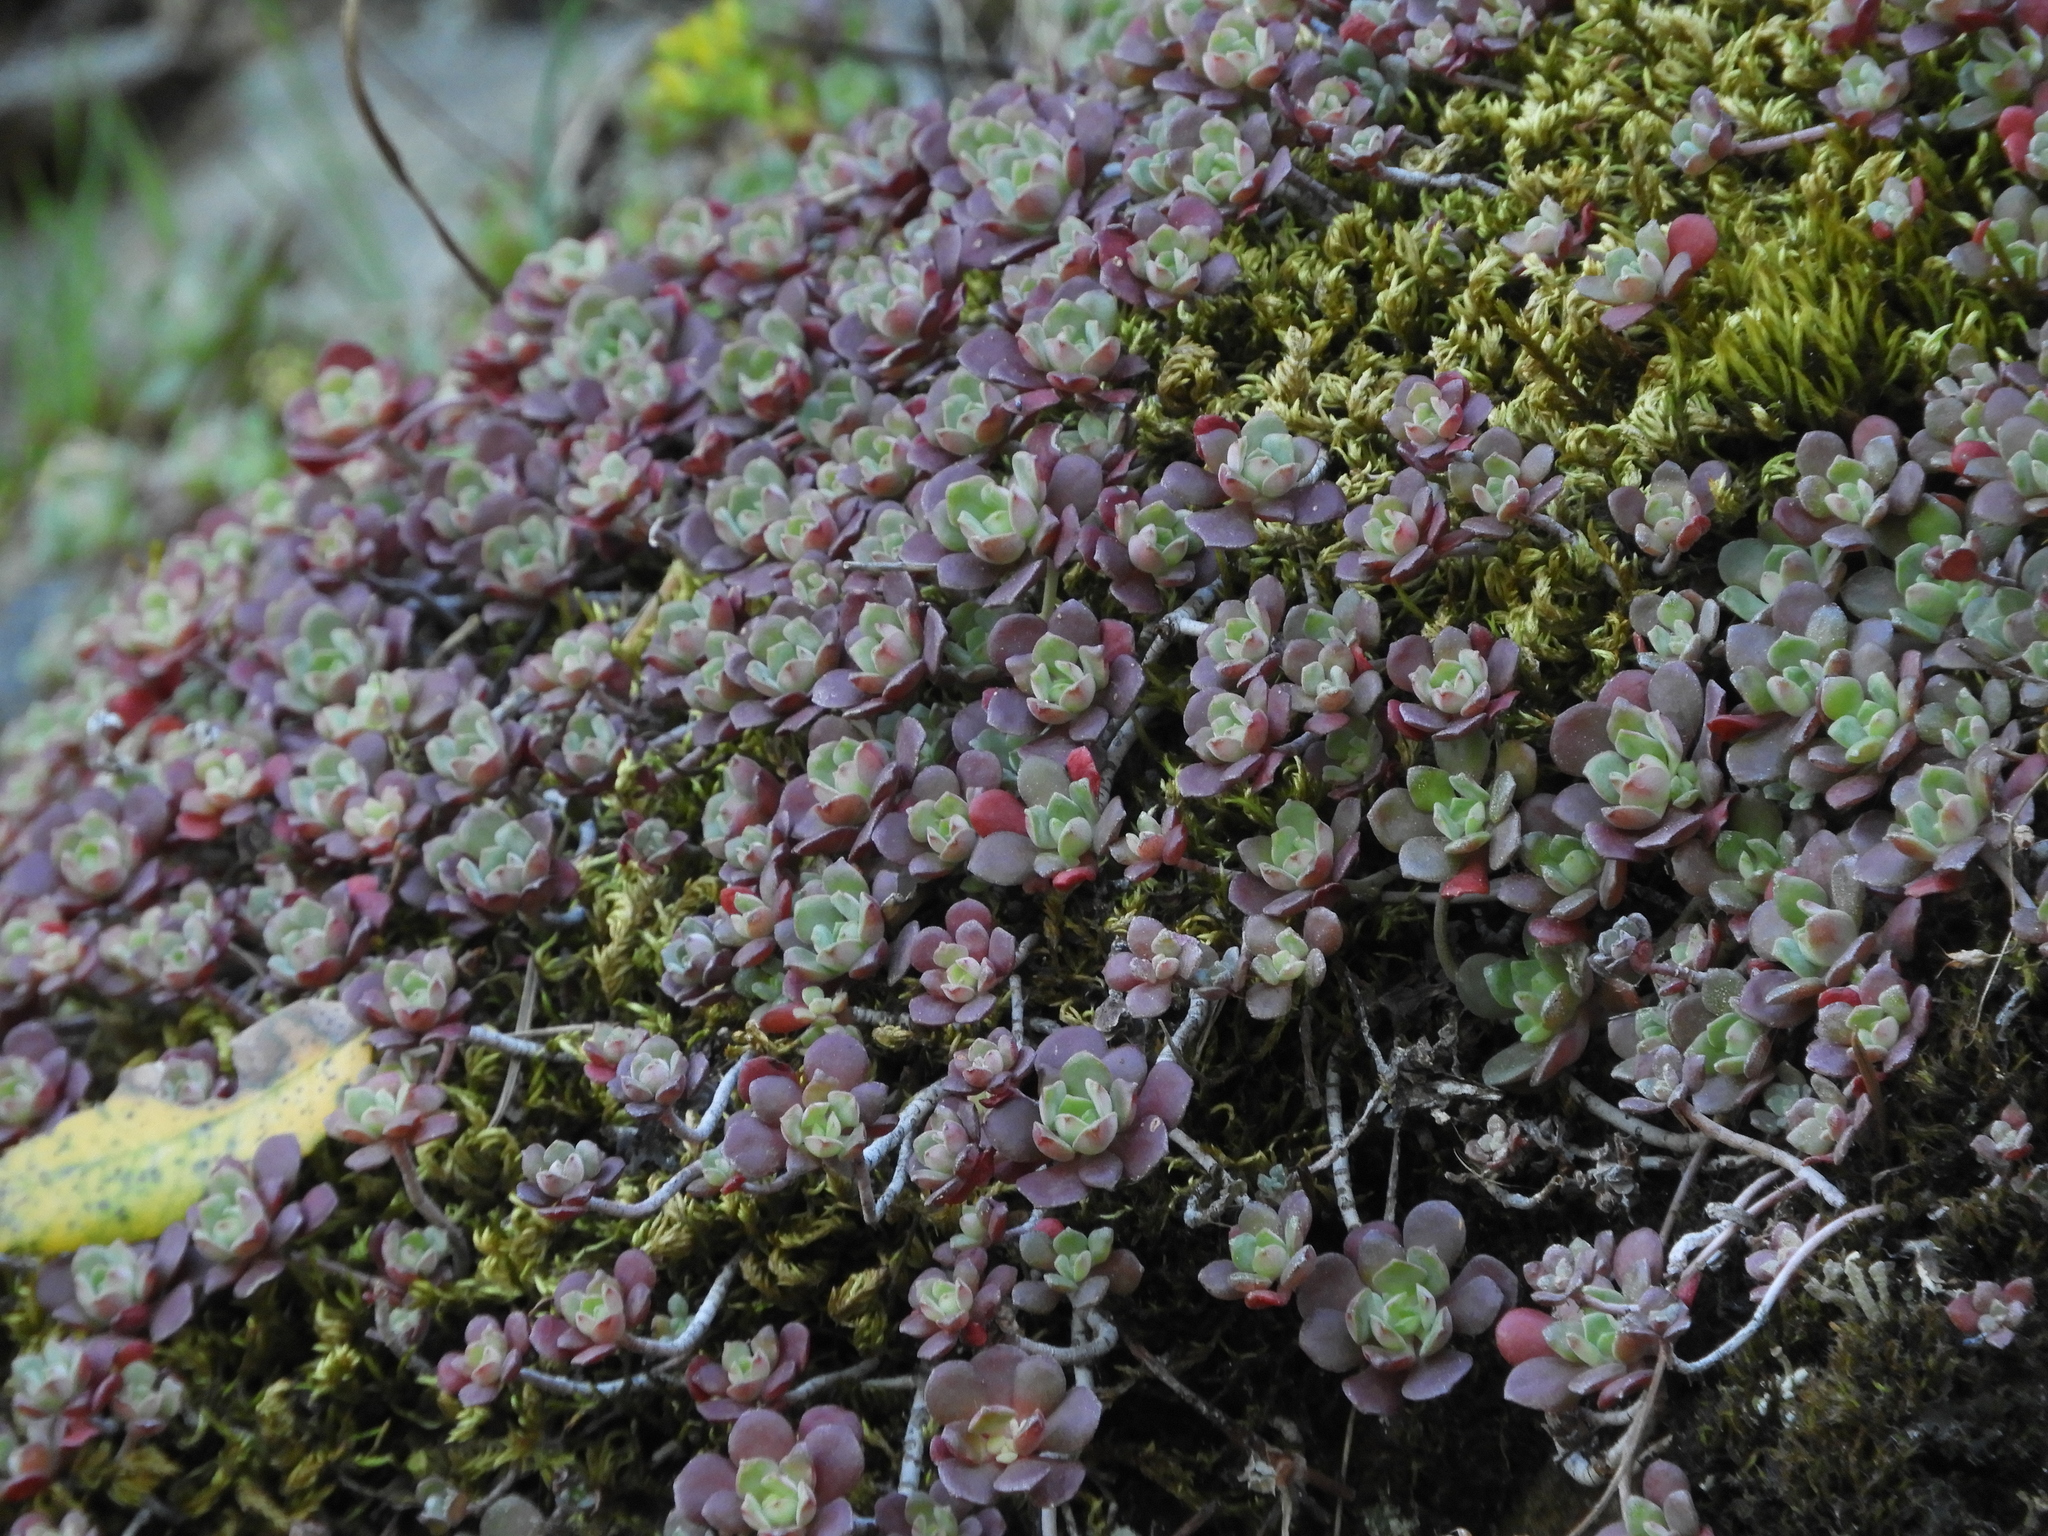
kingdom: Plantae
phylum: Tracheophyta
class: Magnoliopsida
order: Saxifragales
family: Crassulaceae
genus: Sedum
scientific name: Sedum spathulifolium
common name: Colorado stonecrop
